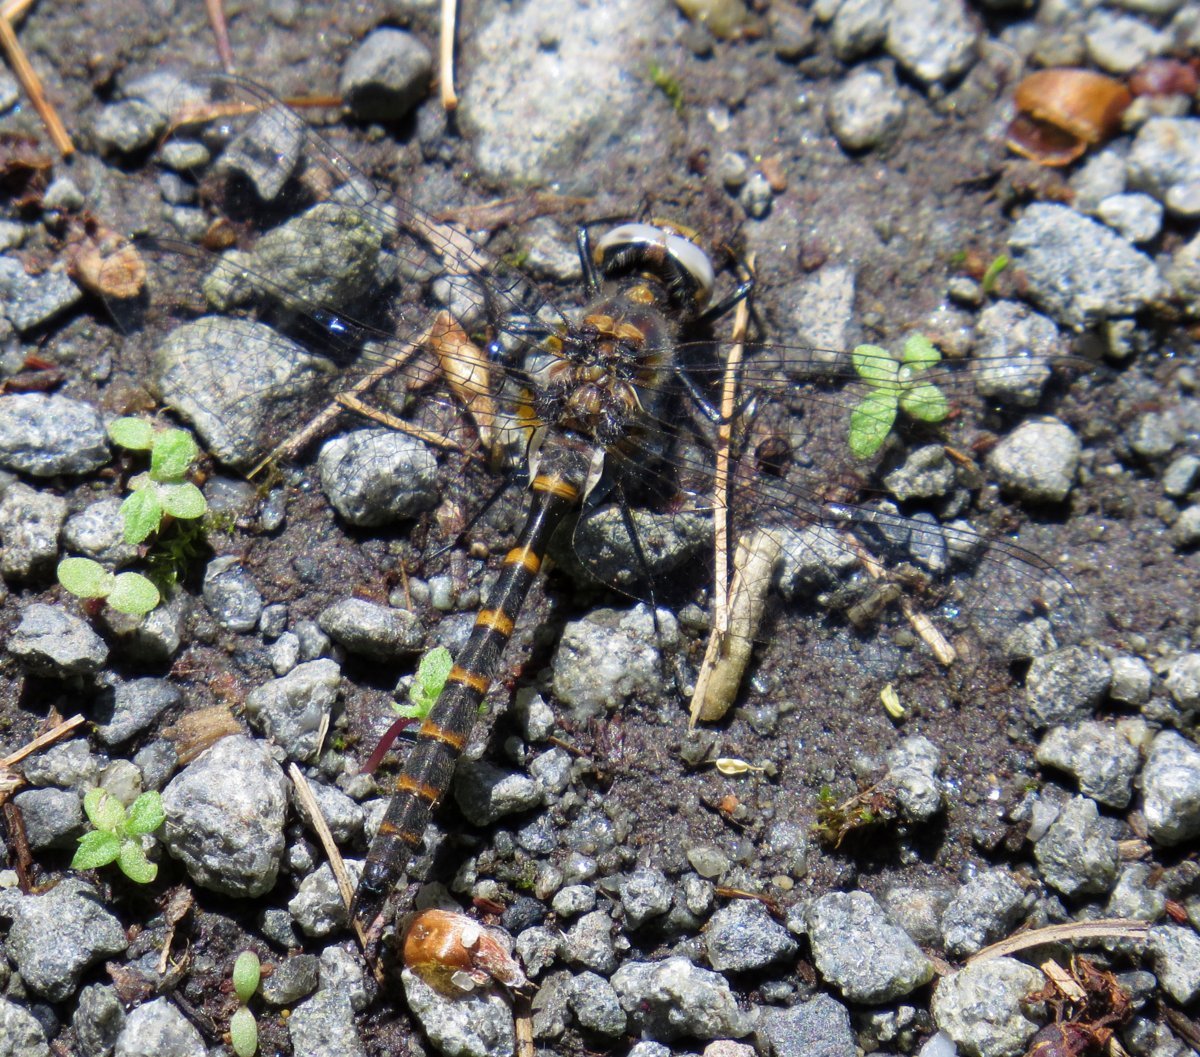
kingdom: Animalia
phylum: Arthropoda
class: Insecta
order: Odonata
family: Corduliidae
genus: Williamsonia
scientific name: Williamsonia lintneri
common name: Ringed boghaunter
